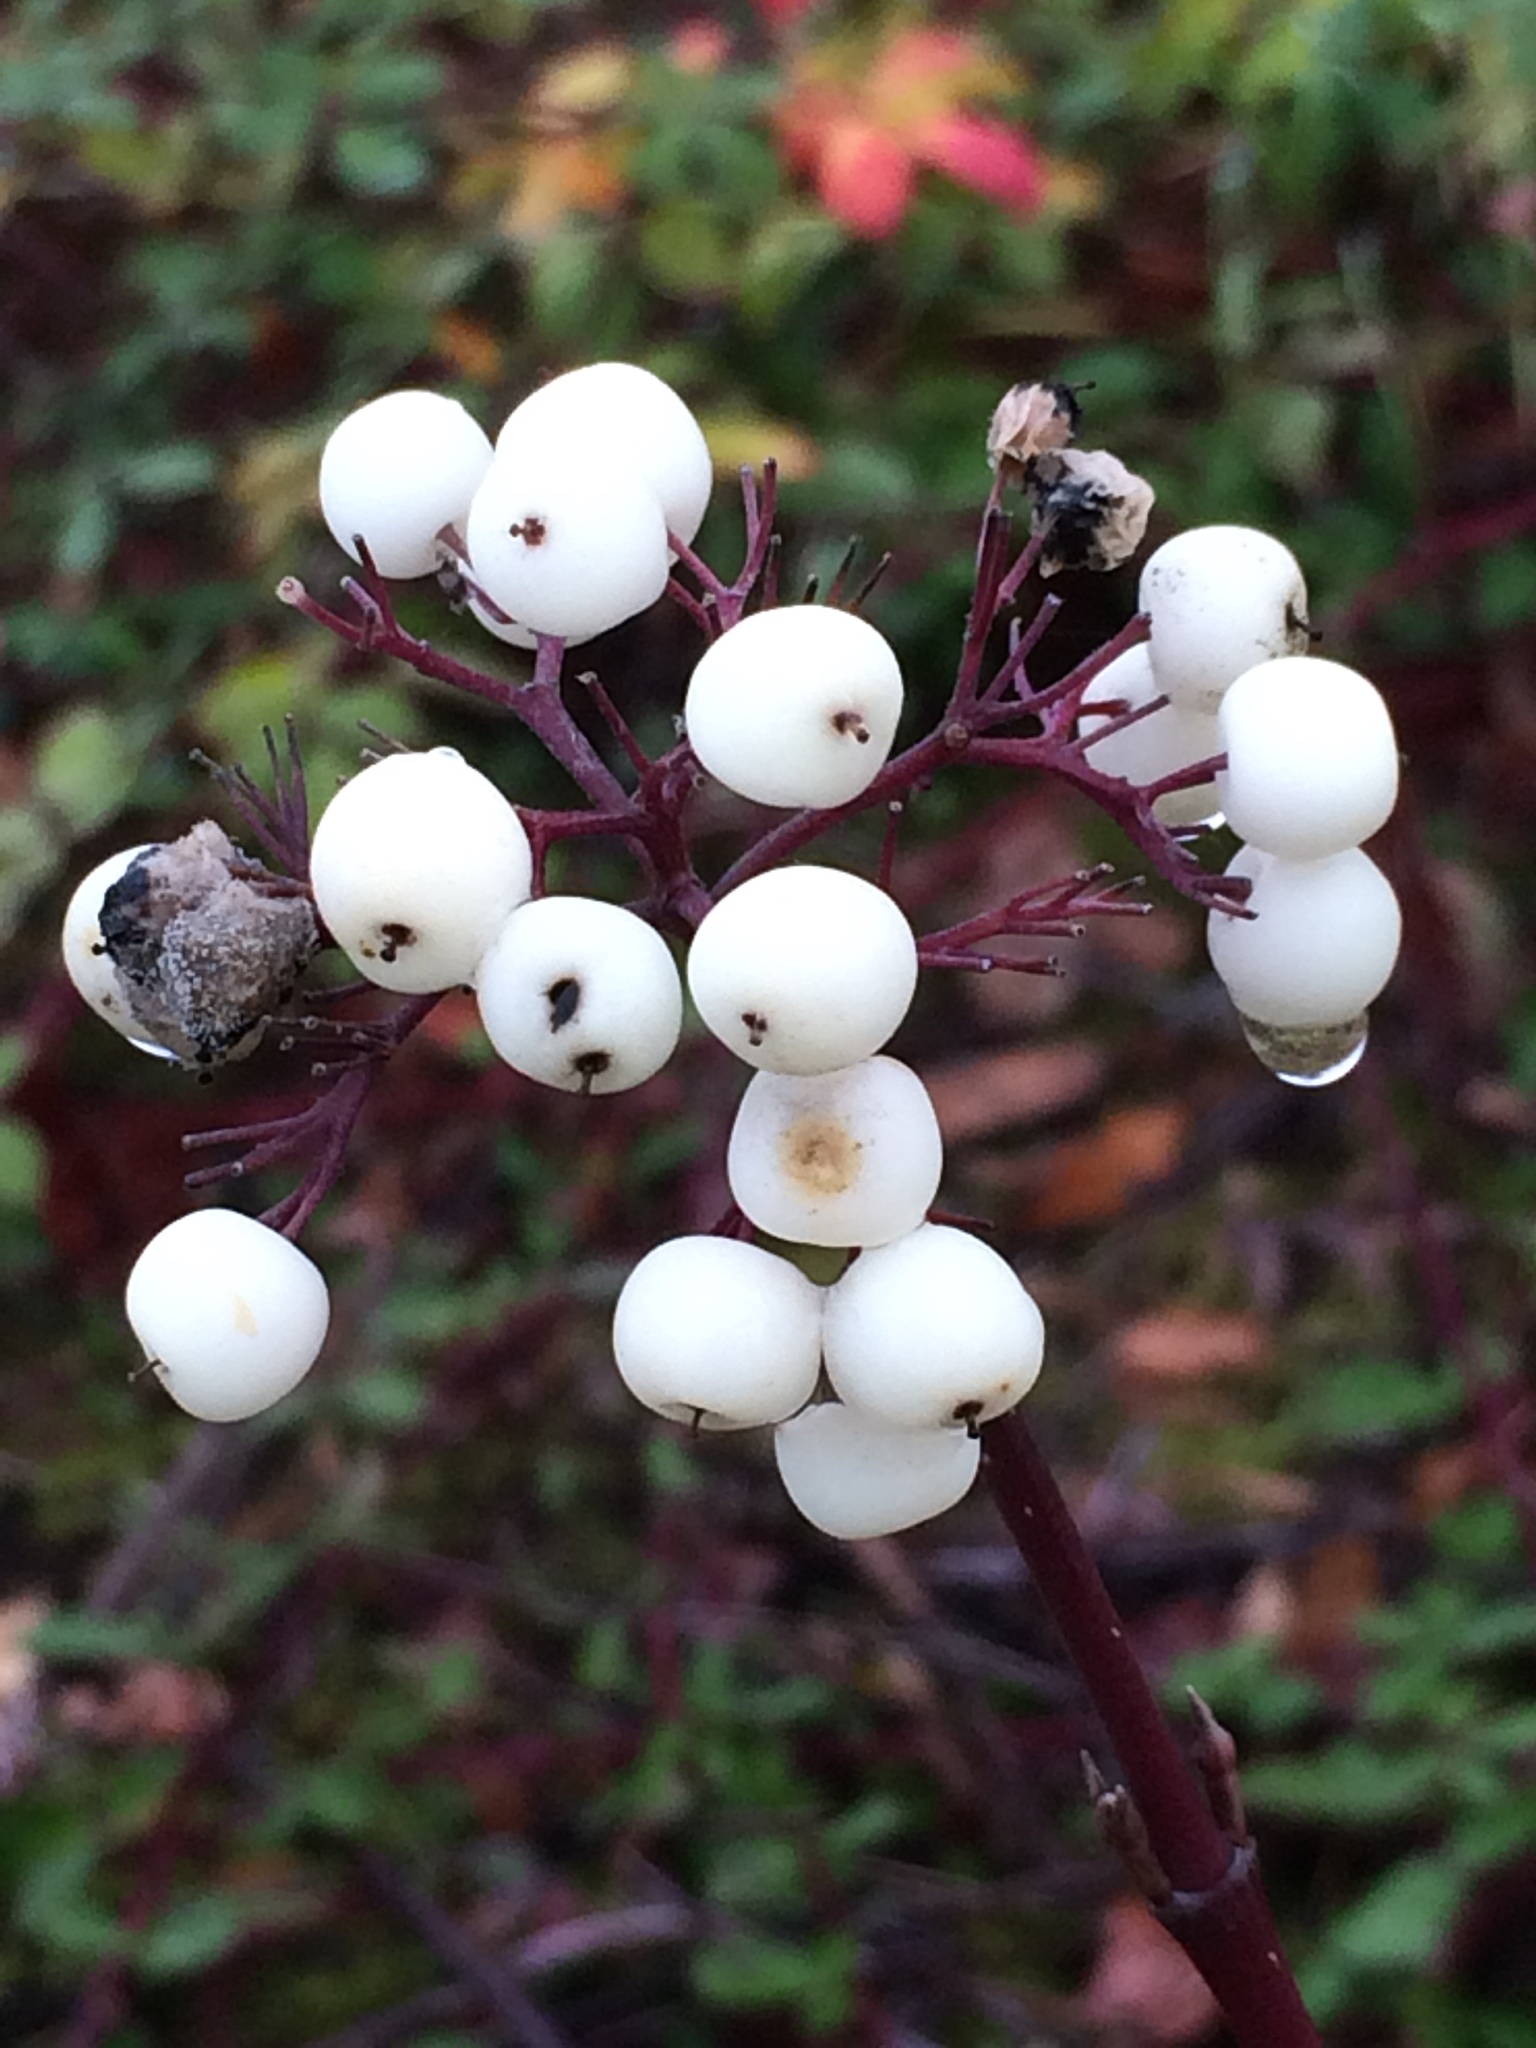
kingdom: Plantae
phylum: Tracheophyta
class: Magnoliopsida
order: Cornales
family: Cornaceae
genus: Cornus
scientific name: Cornus sericea
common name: Red-osier dogwood
